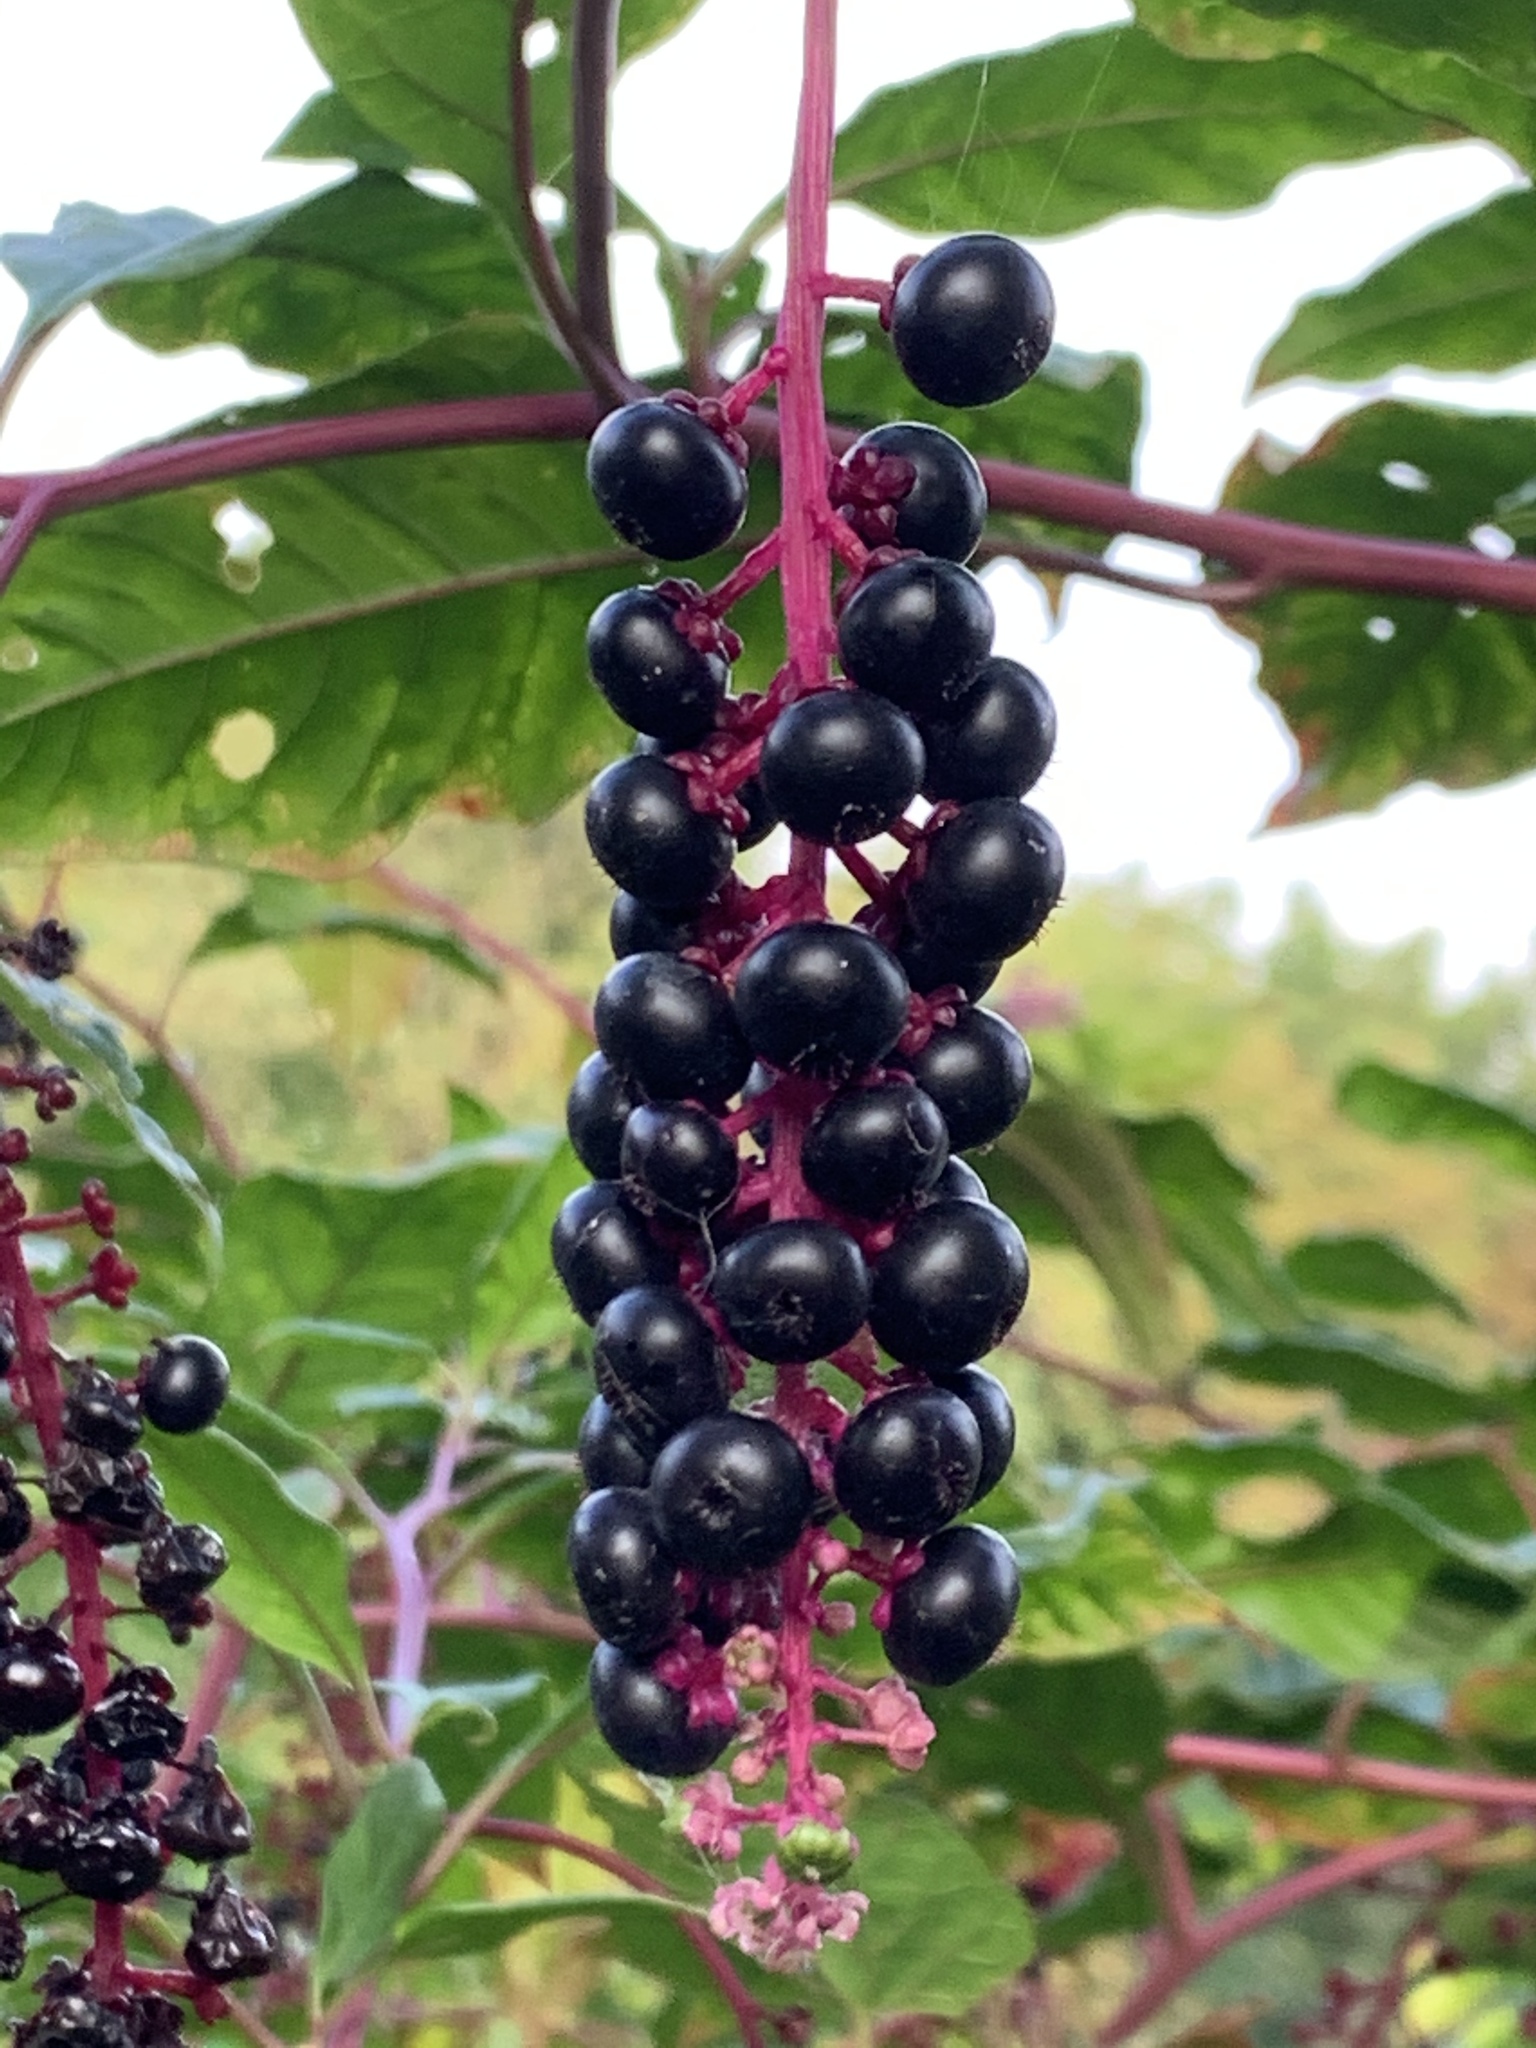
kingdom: Plantae
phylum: Tracheophyta
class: Magnoliopsida
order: Caryophyllales
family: Phytolaccaceae
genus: Phytolacca
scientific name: Phytolacca americana
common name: American pokeweed
